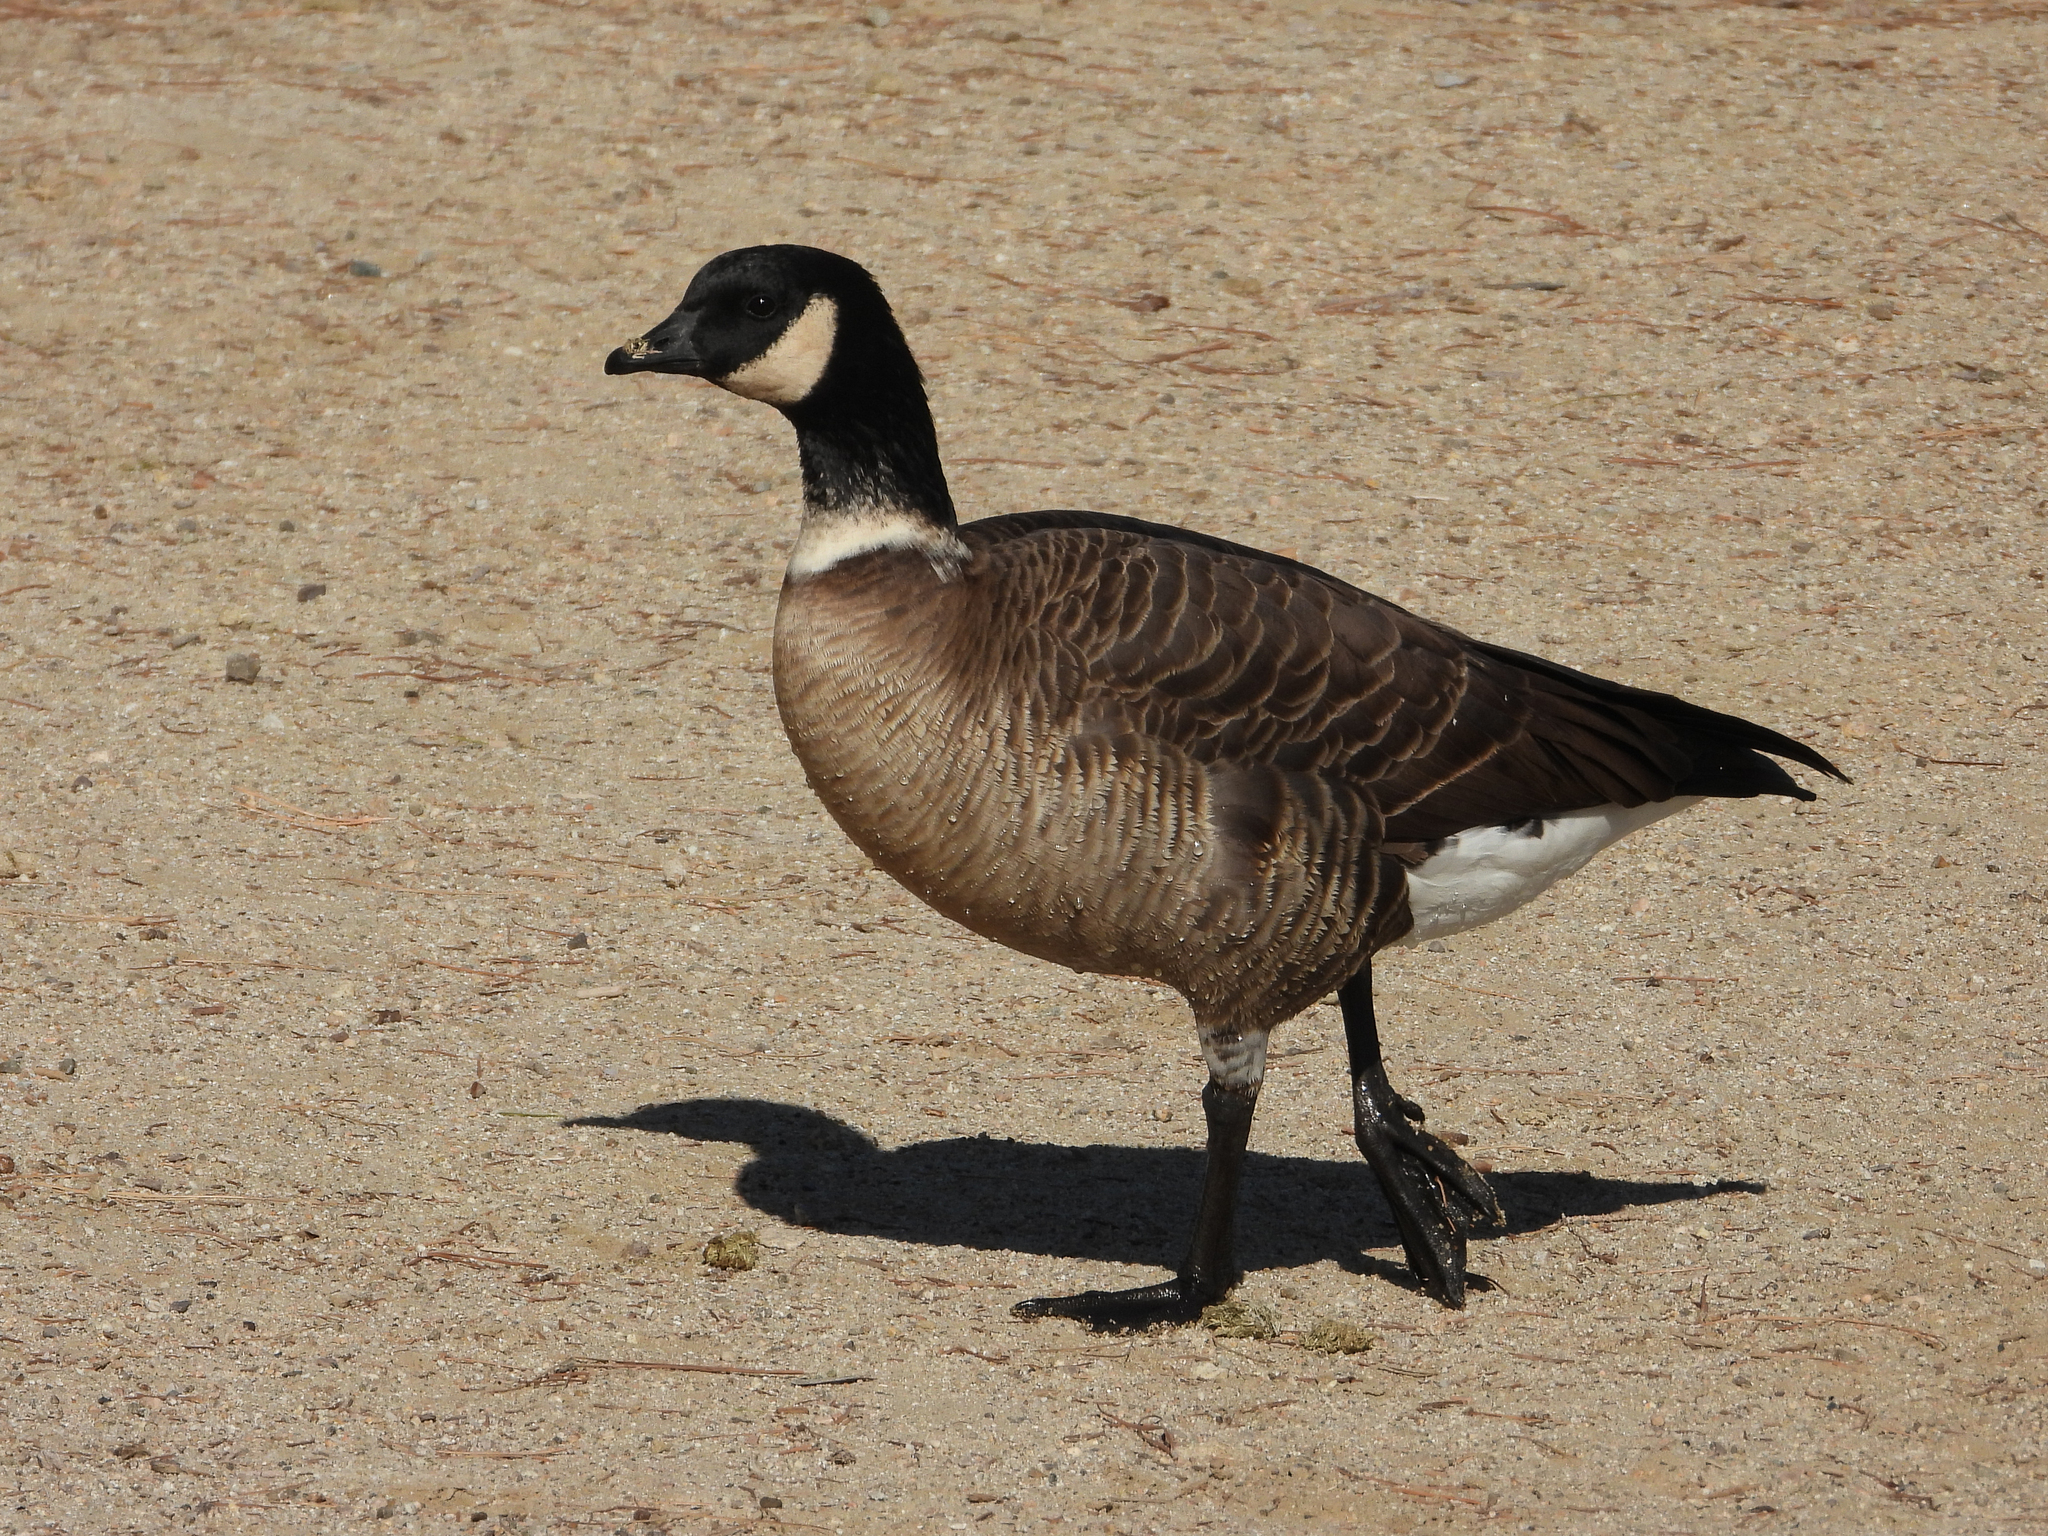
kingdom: Animalia
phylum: Chordata
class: Aves
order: Anseriformes
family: Anatidae
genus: Branta
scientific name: Branta hutchinsii
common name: Cackling goose
